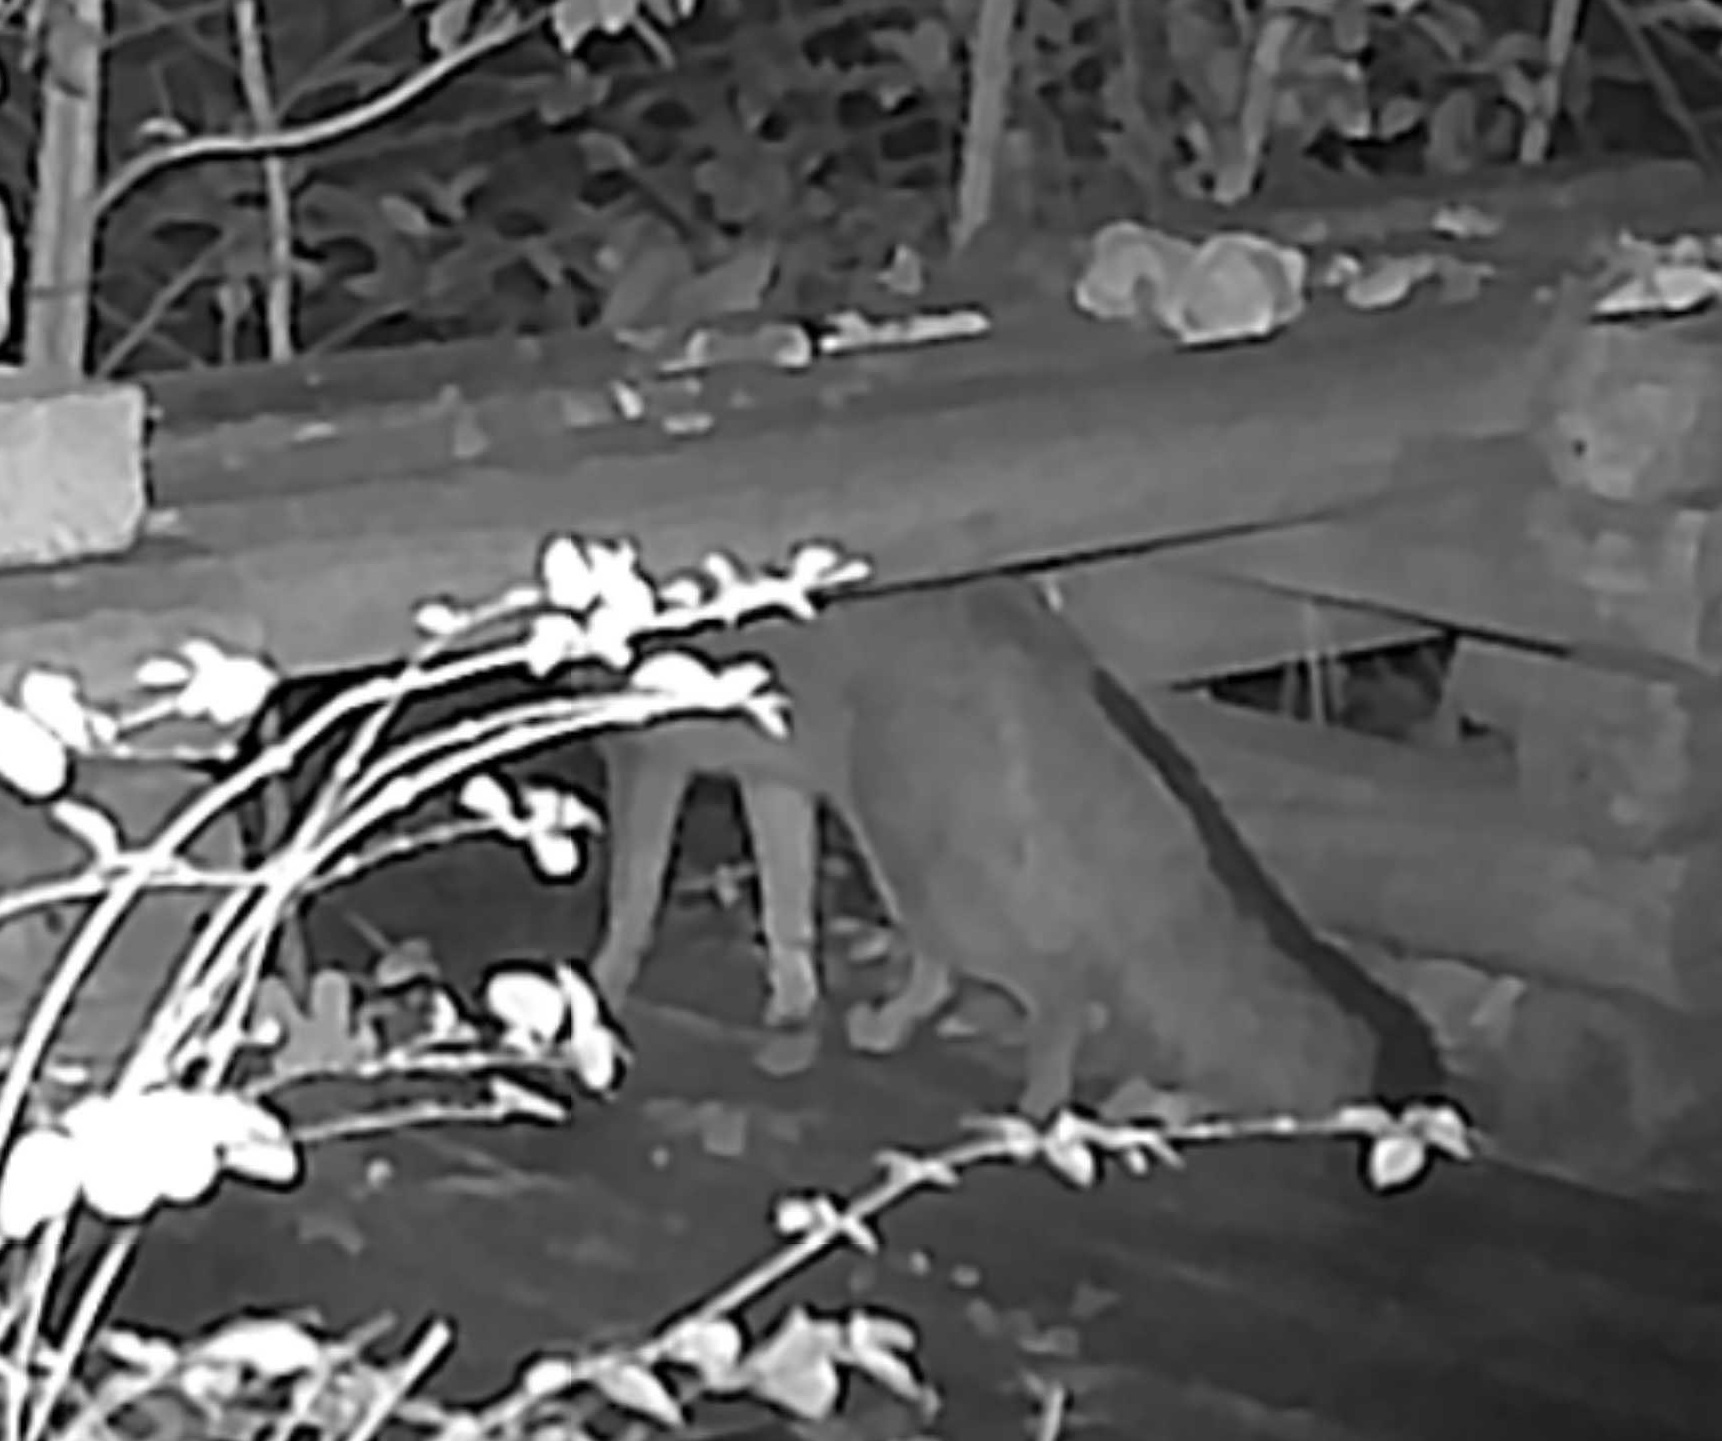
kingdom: Animalia
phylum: Chordata
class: Mammalia
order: Carnivora
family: Canidae
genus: Urocyon
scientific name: Urocyon cinereoargenteus
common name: Gray fox
